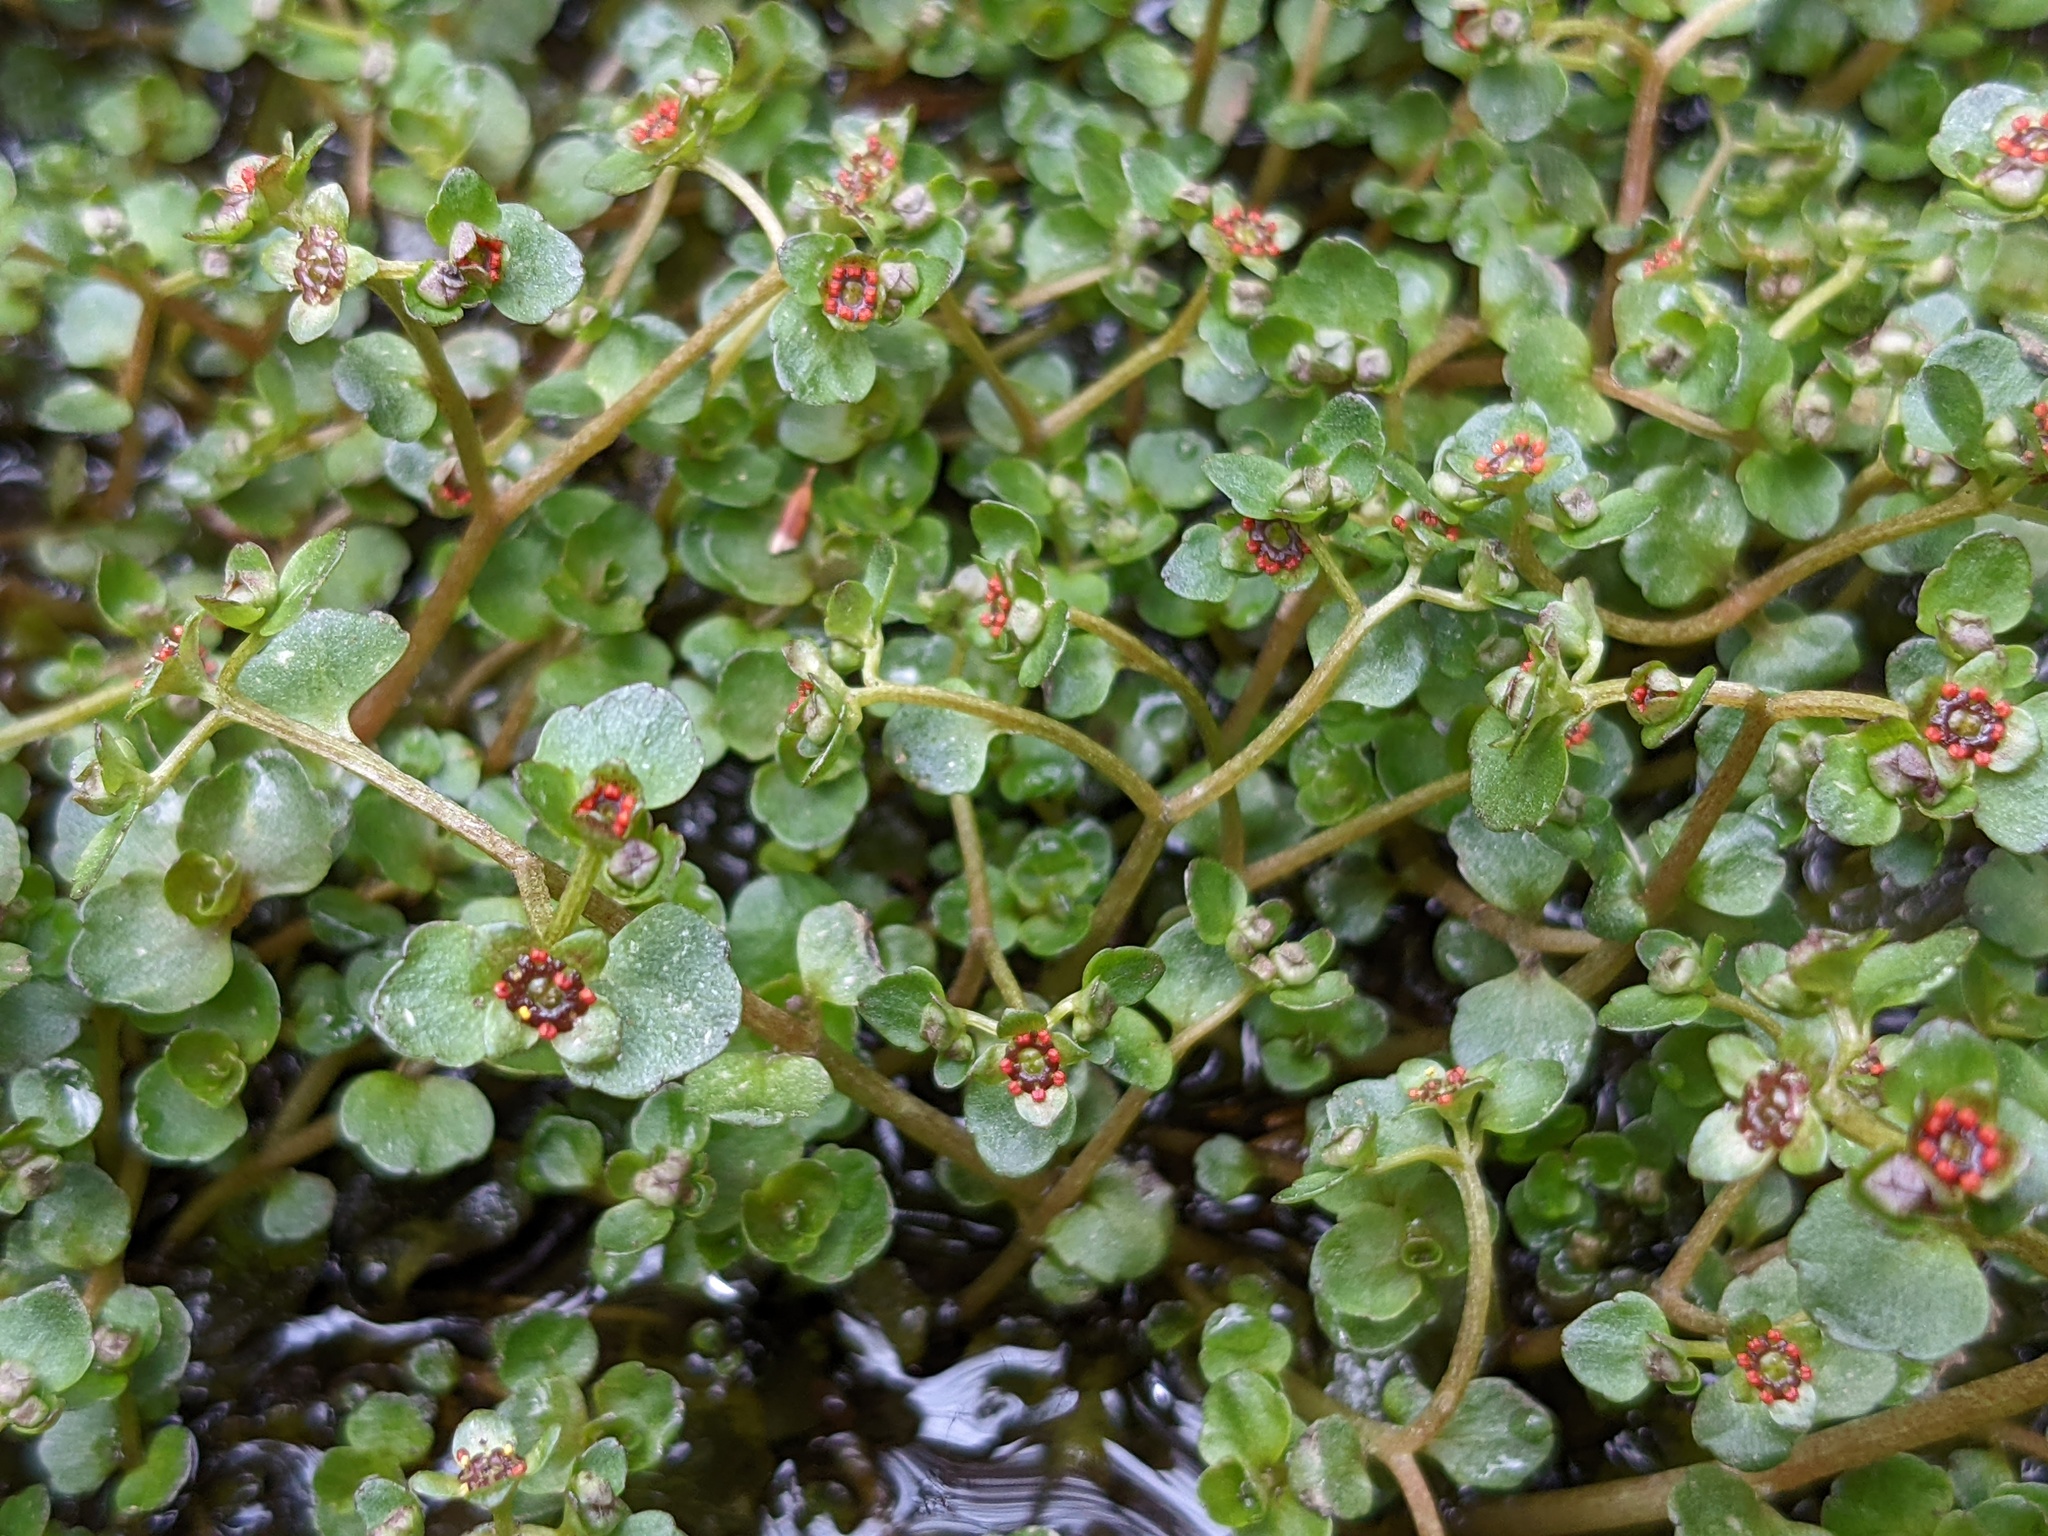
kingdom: Plantae
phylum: Tracheophyta
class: Magnoliopsida
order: Saxifragales
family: Saxifragaceae
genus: Chrysosplenium
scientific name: Chrysosplenium americanum
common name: American golden-saxifrage
